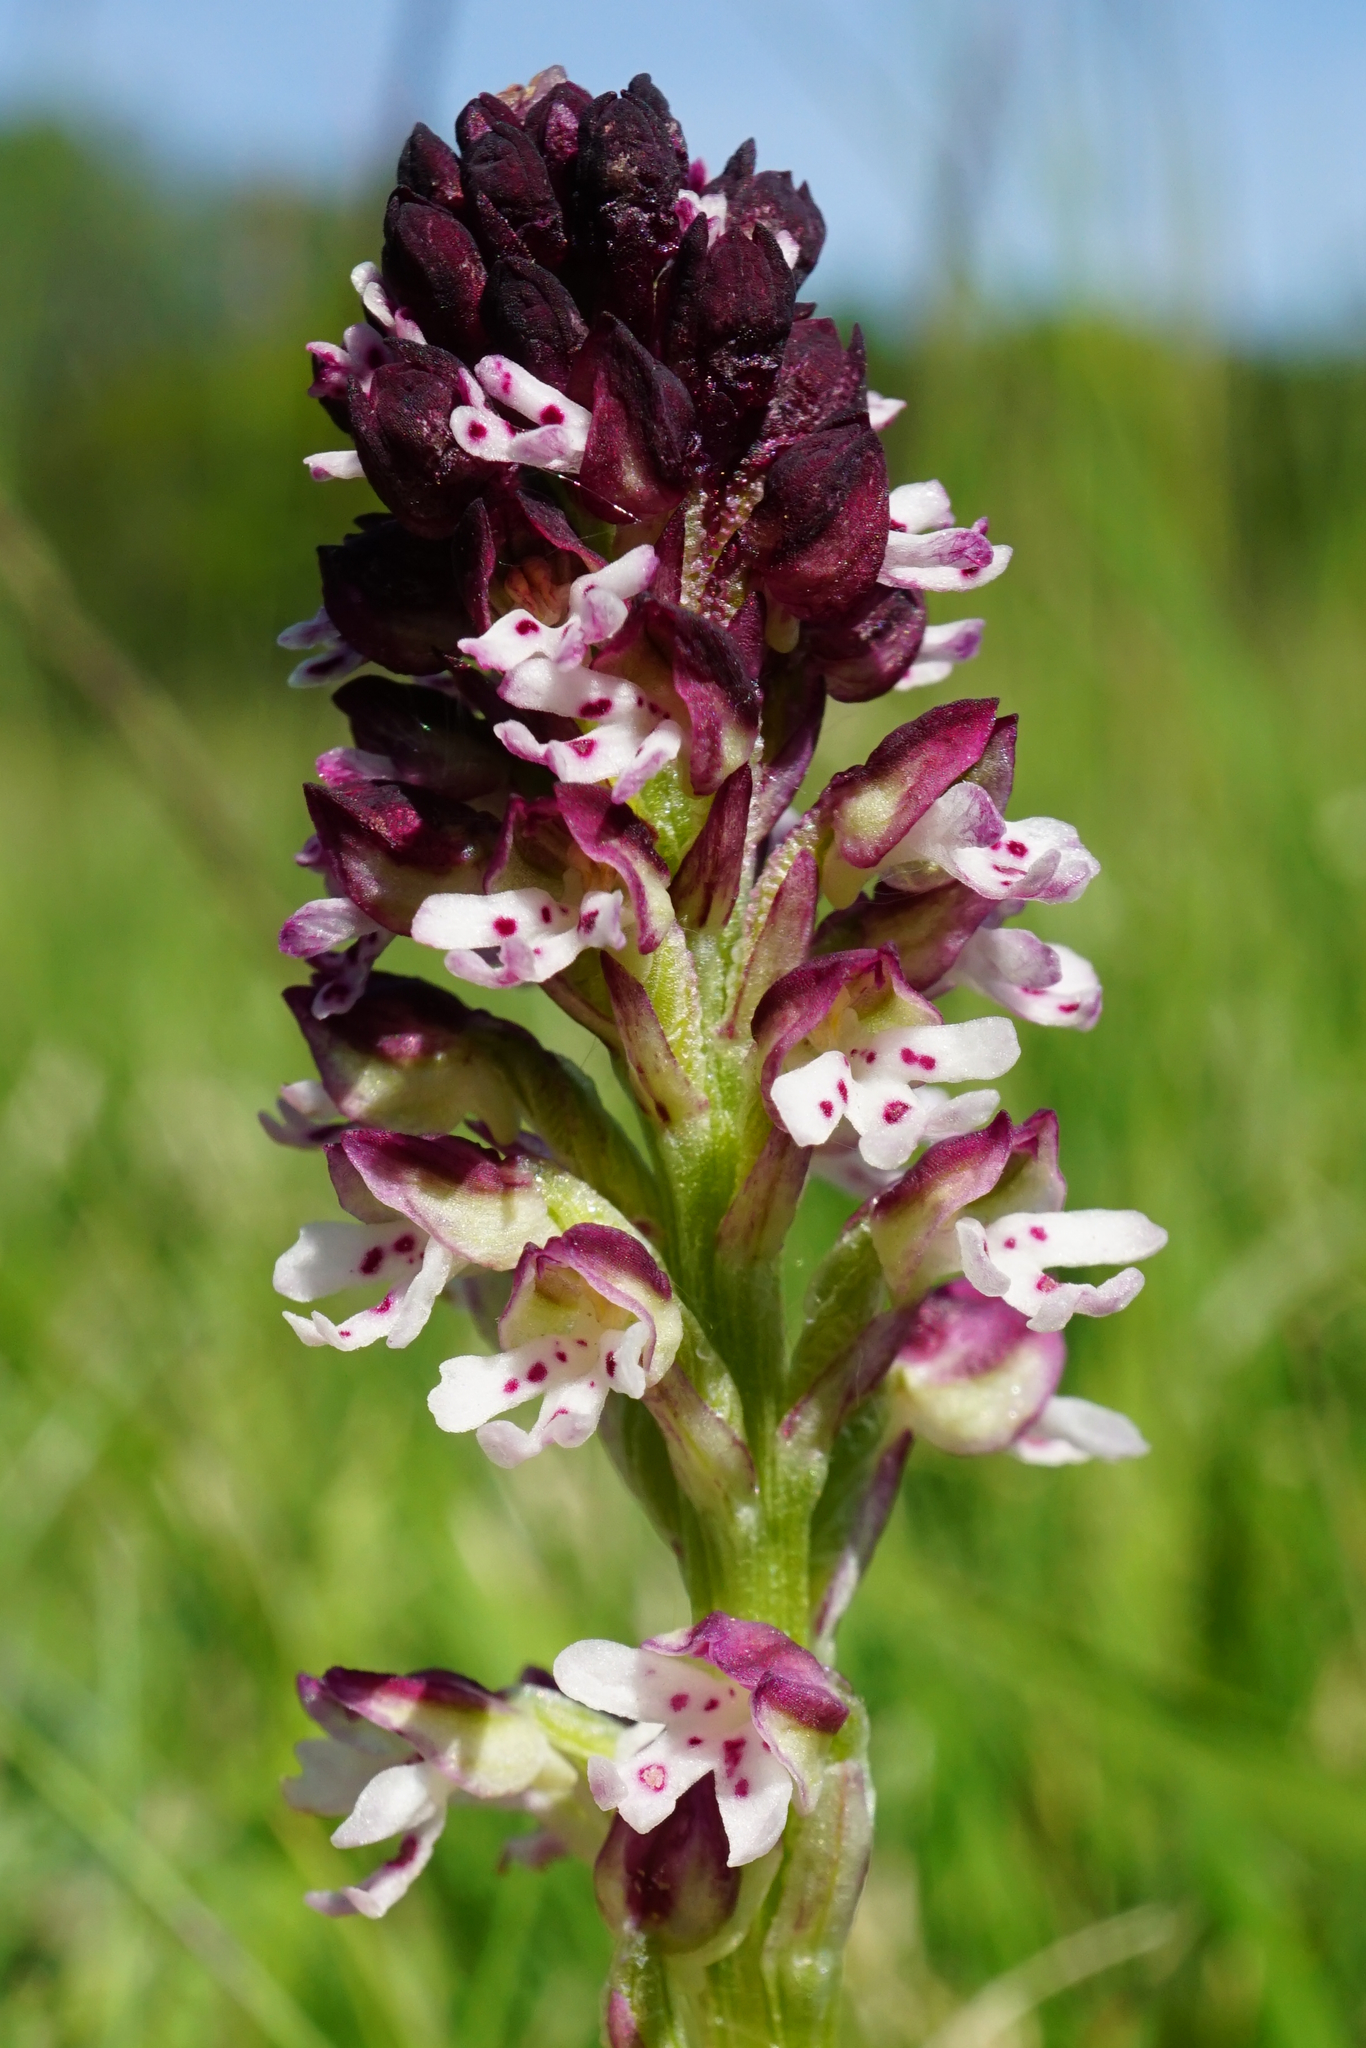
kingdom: Plantae
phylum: Tracheophyta
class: Liliopsida
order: Asparagales
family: Orchidaceae
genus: Neotinea
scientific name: Neotinea ustulata
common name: Burnt orchid
